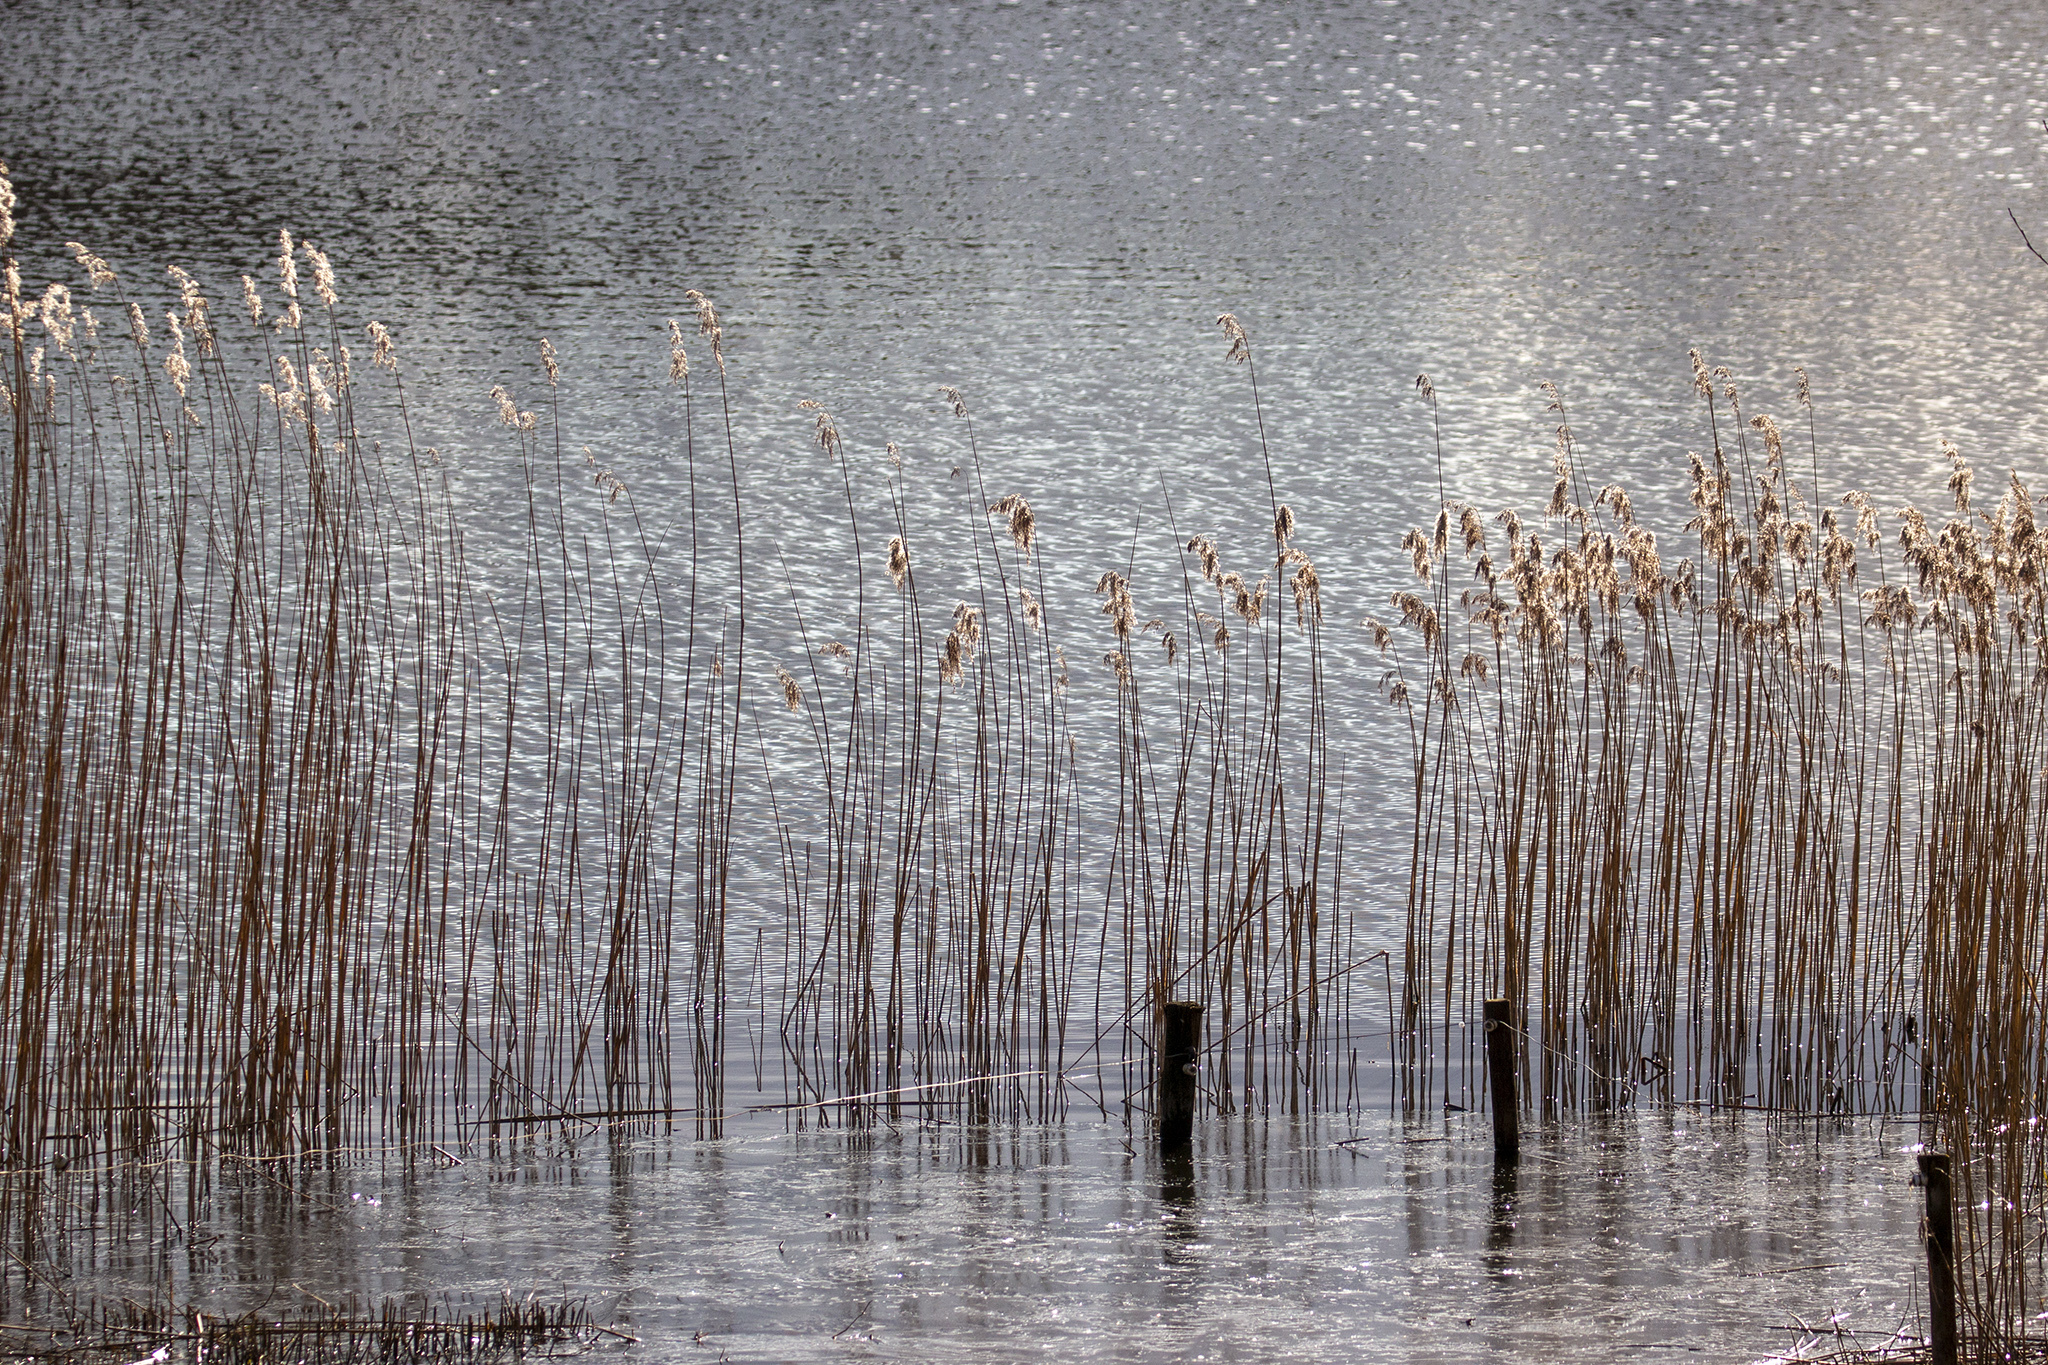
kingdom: Plantae
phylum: Tracheophyta
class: Liliopsida
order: Poales
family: Poaceae
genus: Phragmites
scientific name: Phragmites australis
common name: Common reed
